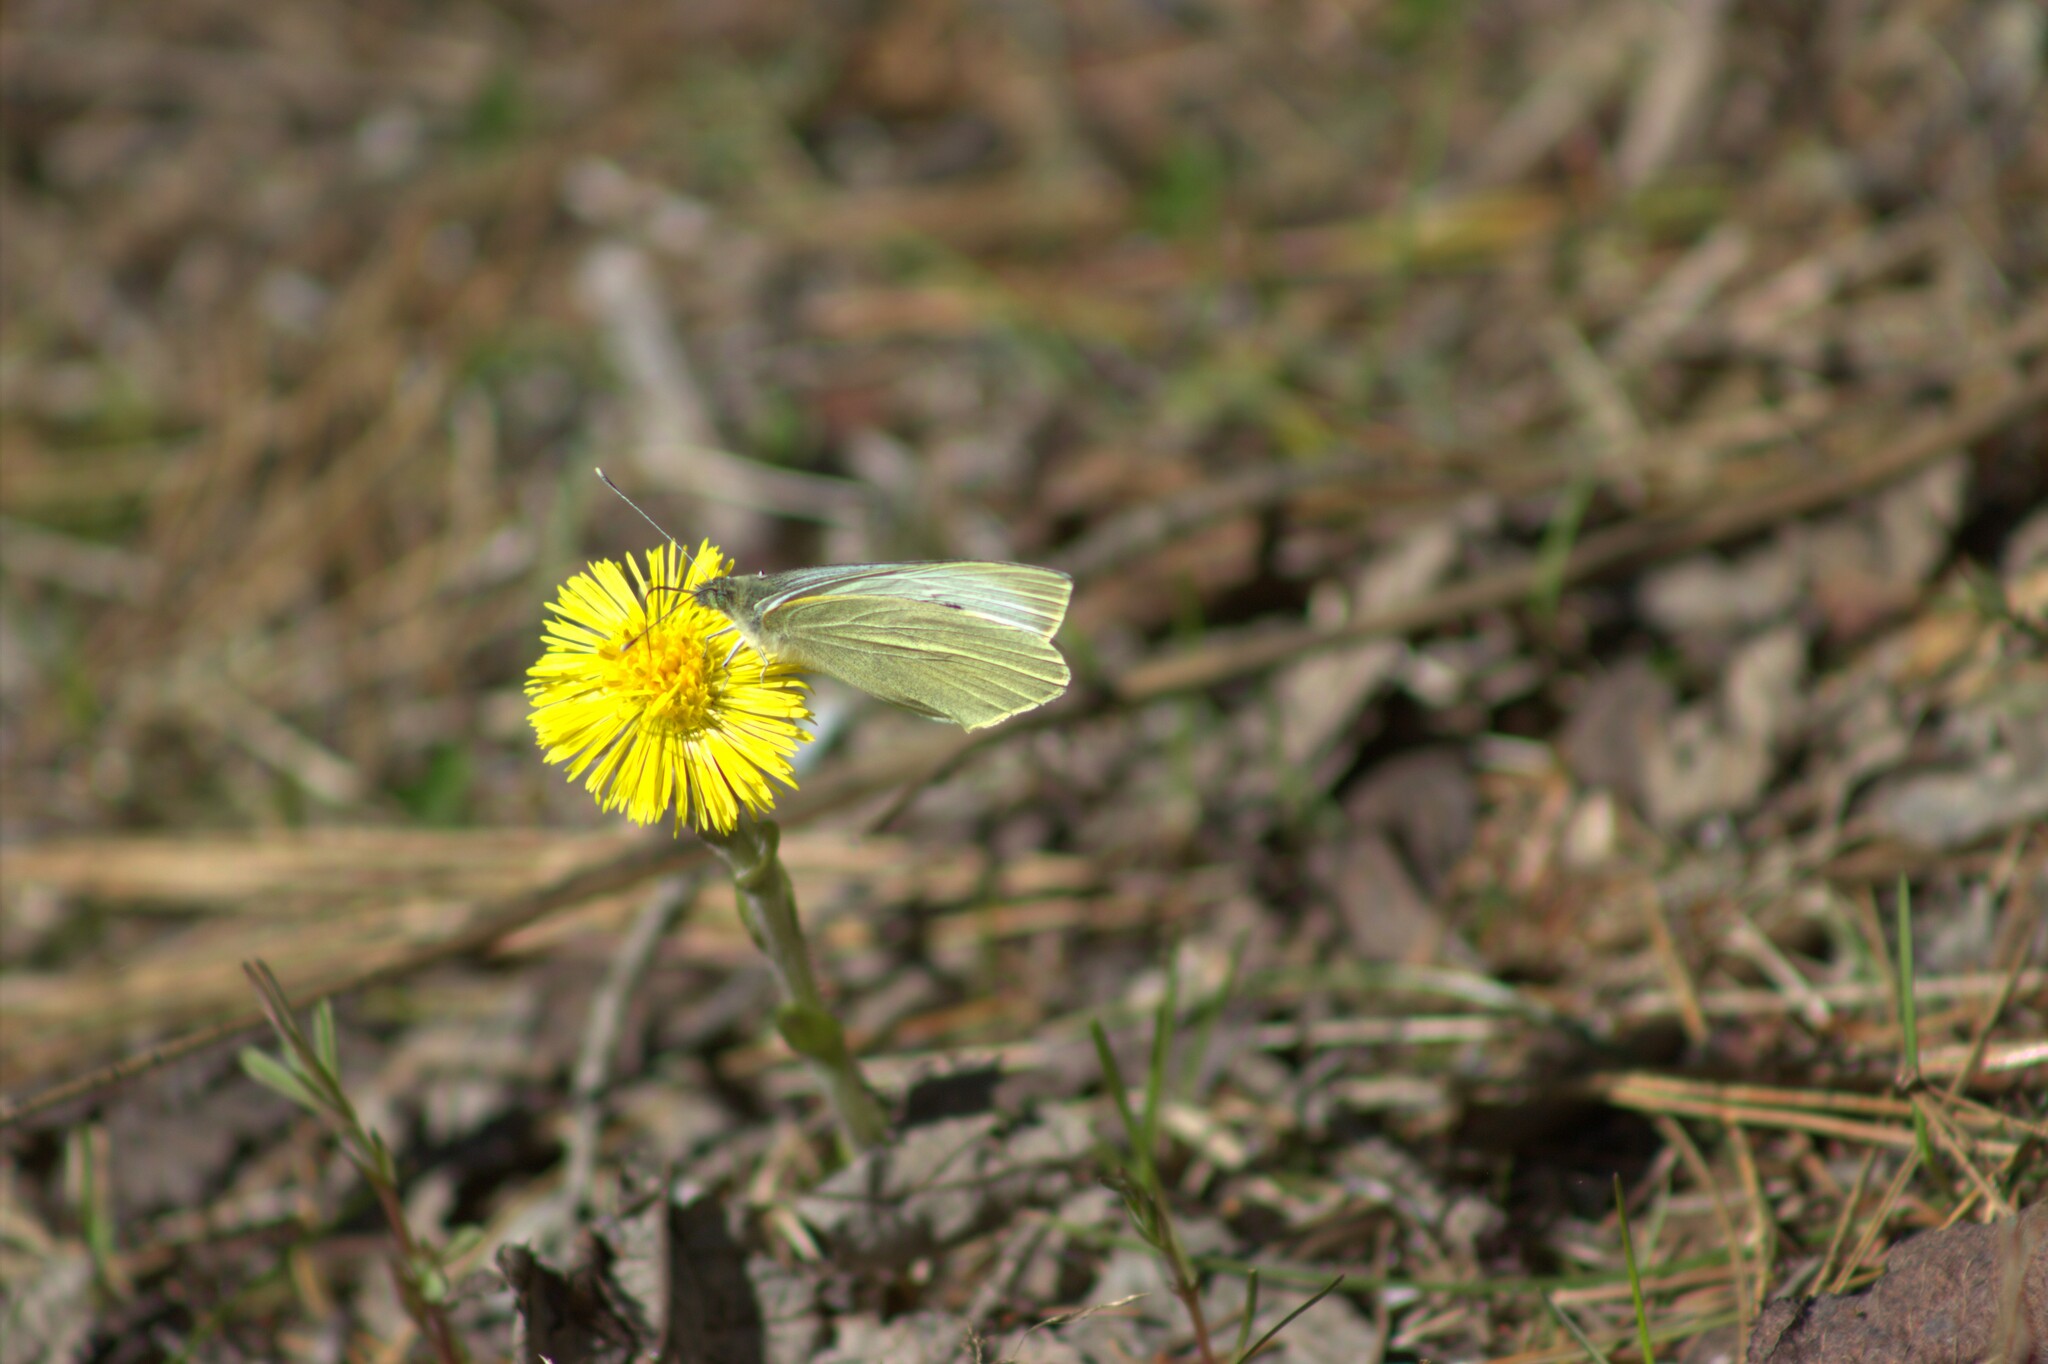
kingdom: Animalia
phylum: Arthropoda
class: Insecta
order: Lepidoptera
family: Pieridae
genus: Pieris
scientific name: Pieris rapae
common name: Small white
